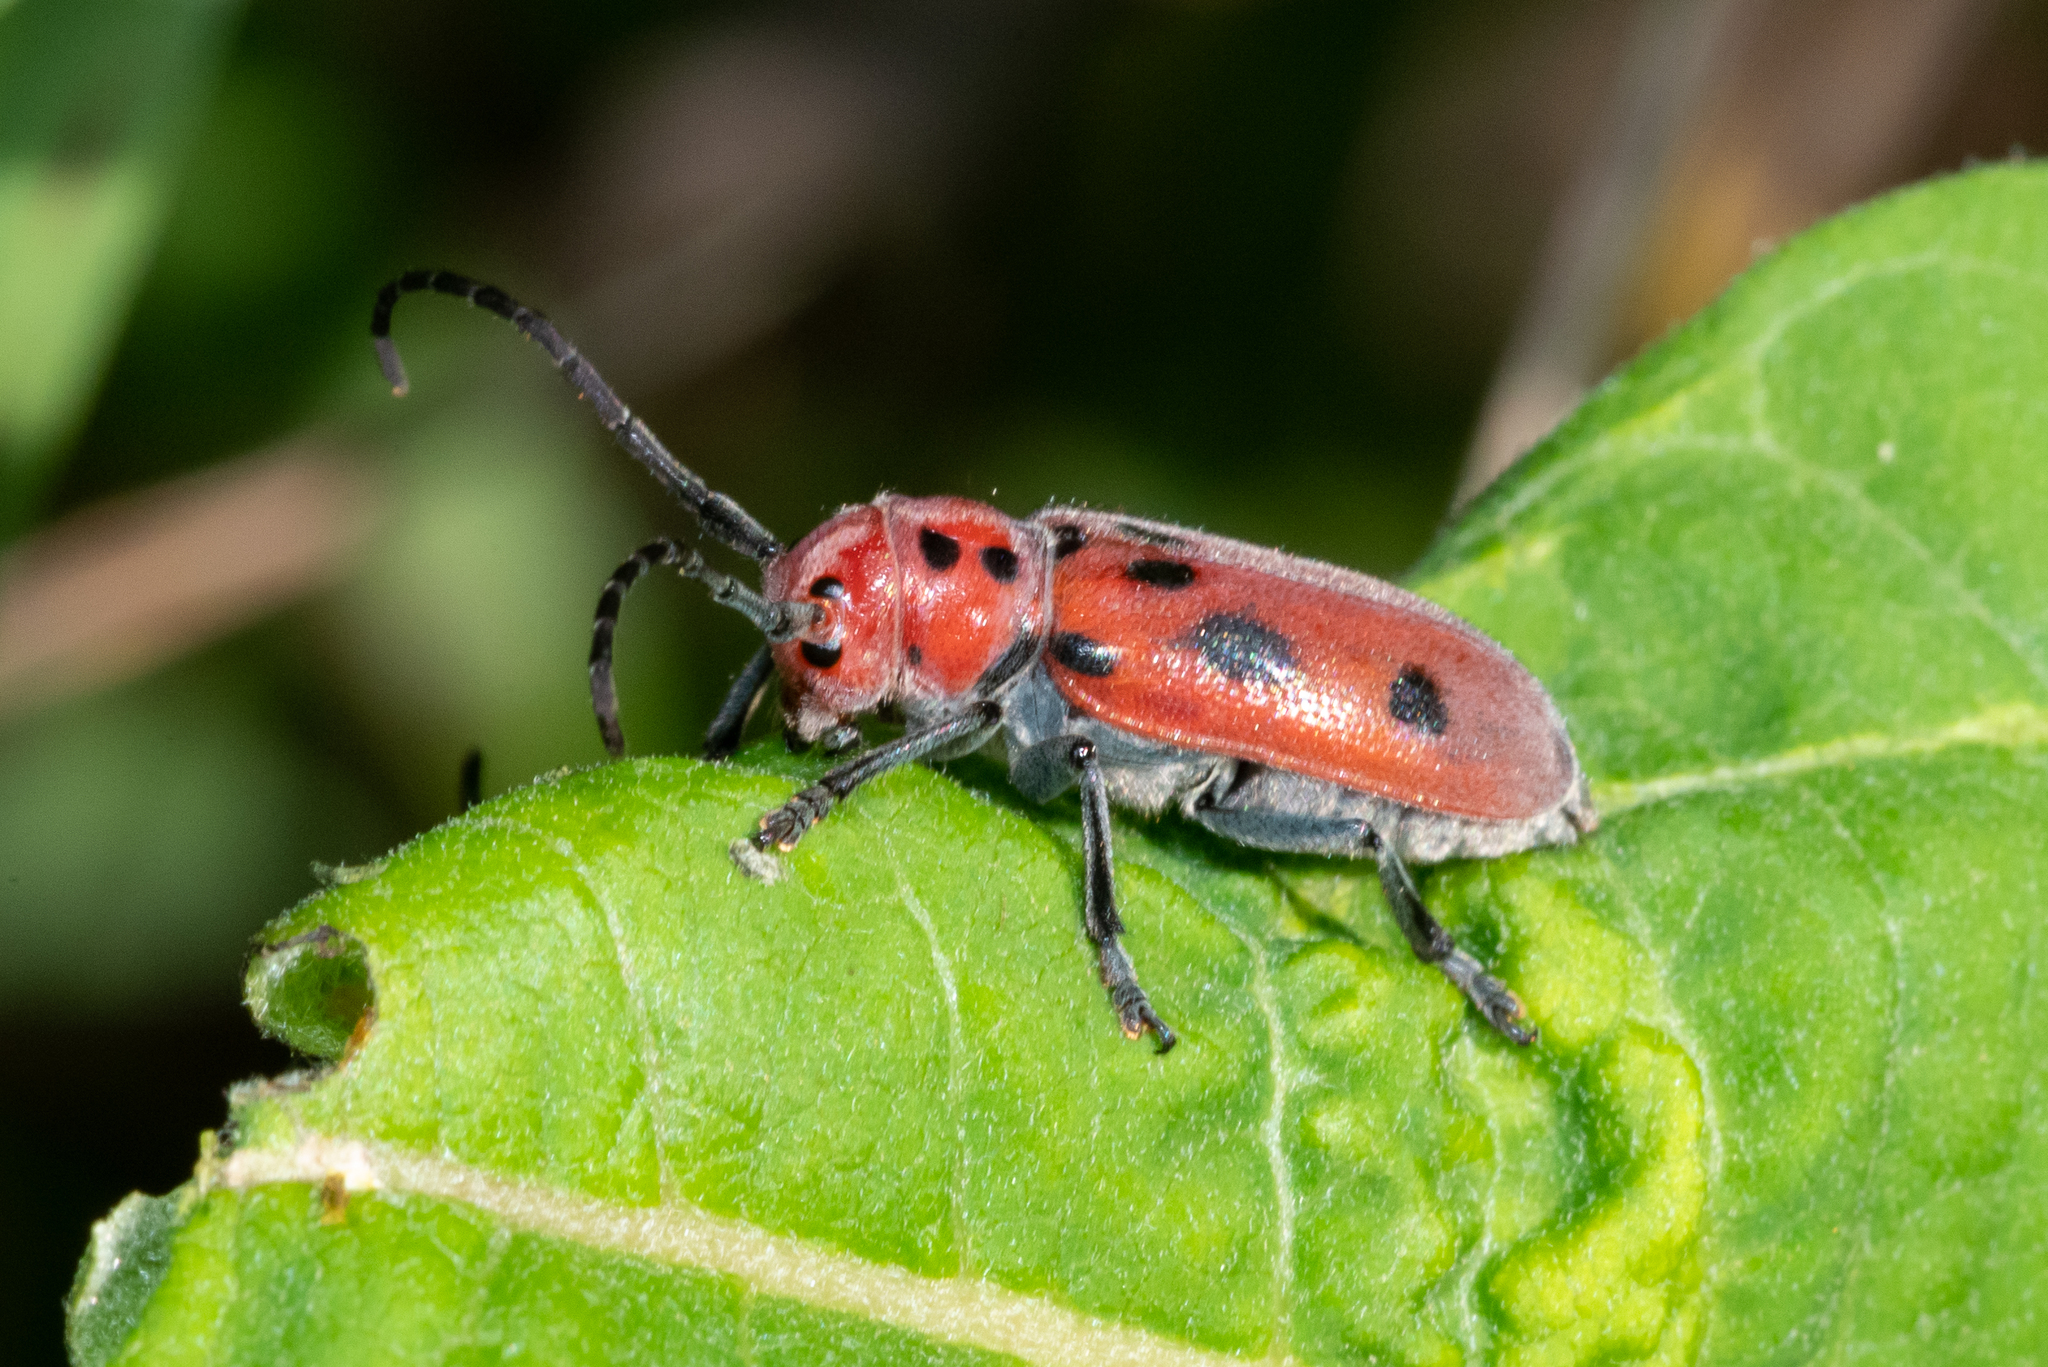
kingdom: Animalia
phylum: Arthropoda
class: Insecta
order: Coleoptera
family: Cerambycidae
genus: Tetraopes
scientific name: Tetraopes tetrophthalmus
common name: Red milkweed beetle
